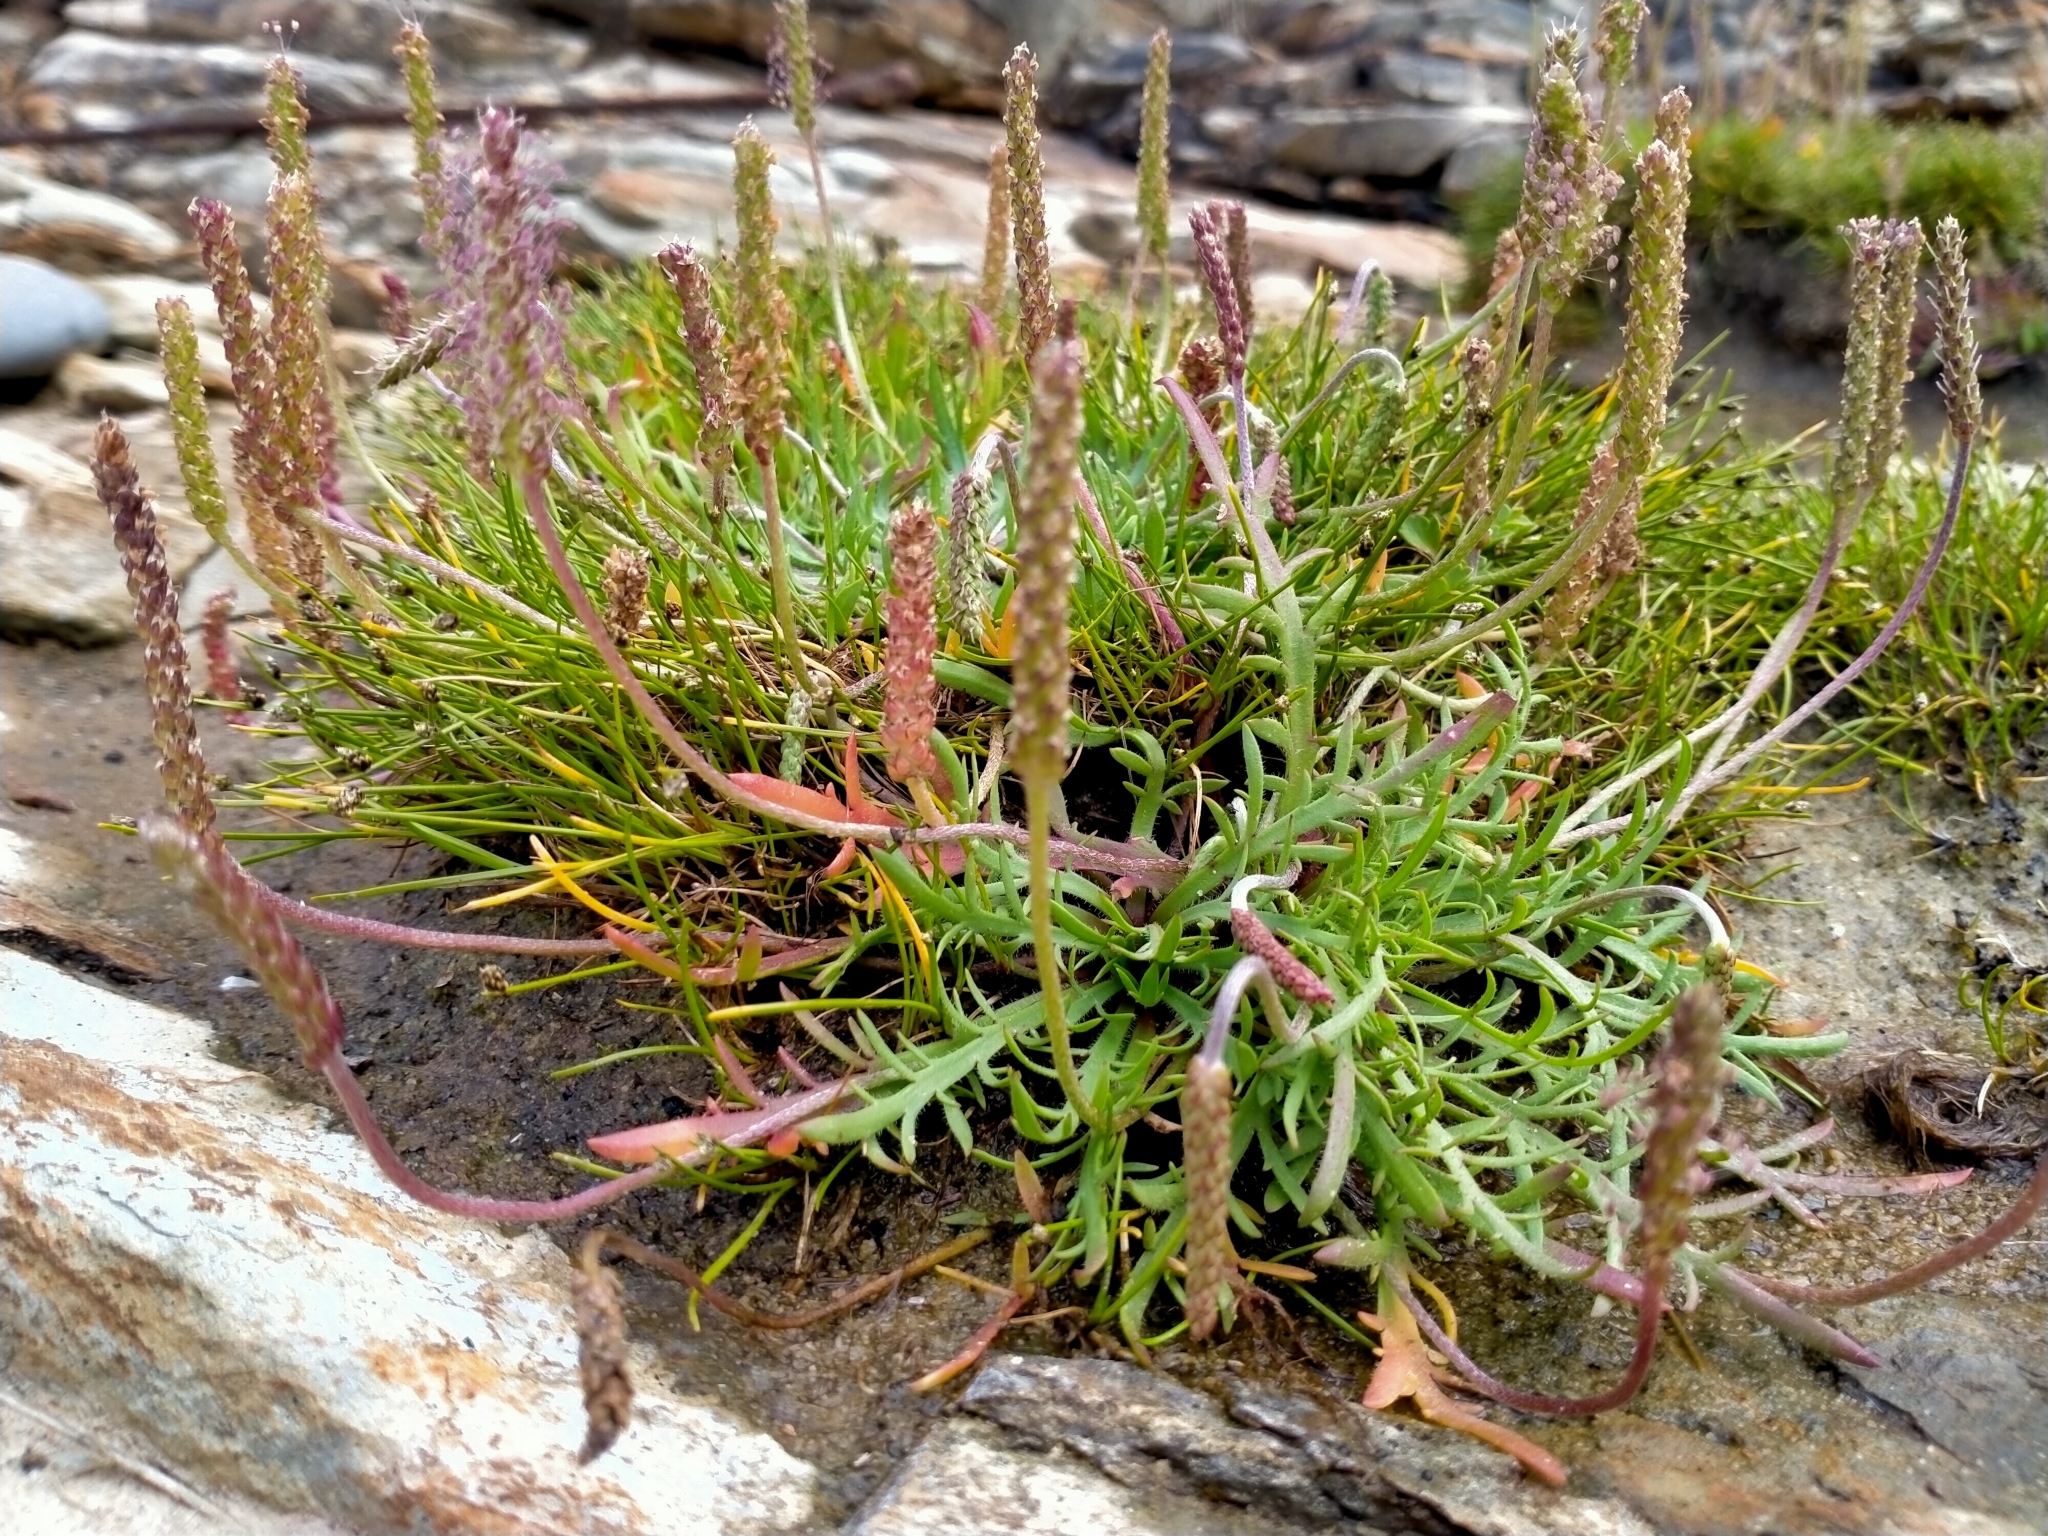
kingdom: Plantae
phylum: Tracheophyta
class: Magnoliopsida
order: Lamiales
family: Plantaginaceae
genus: Plantago
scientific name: Plantago coronopus
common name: Buck's-horn plantain
